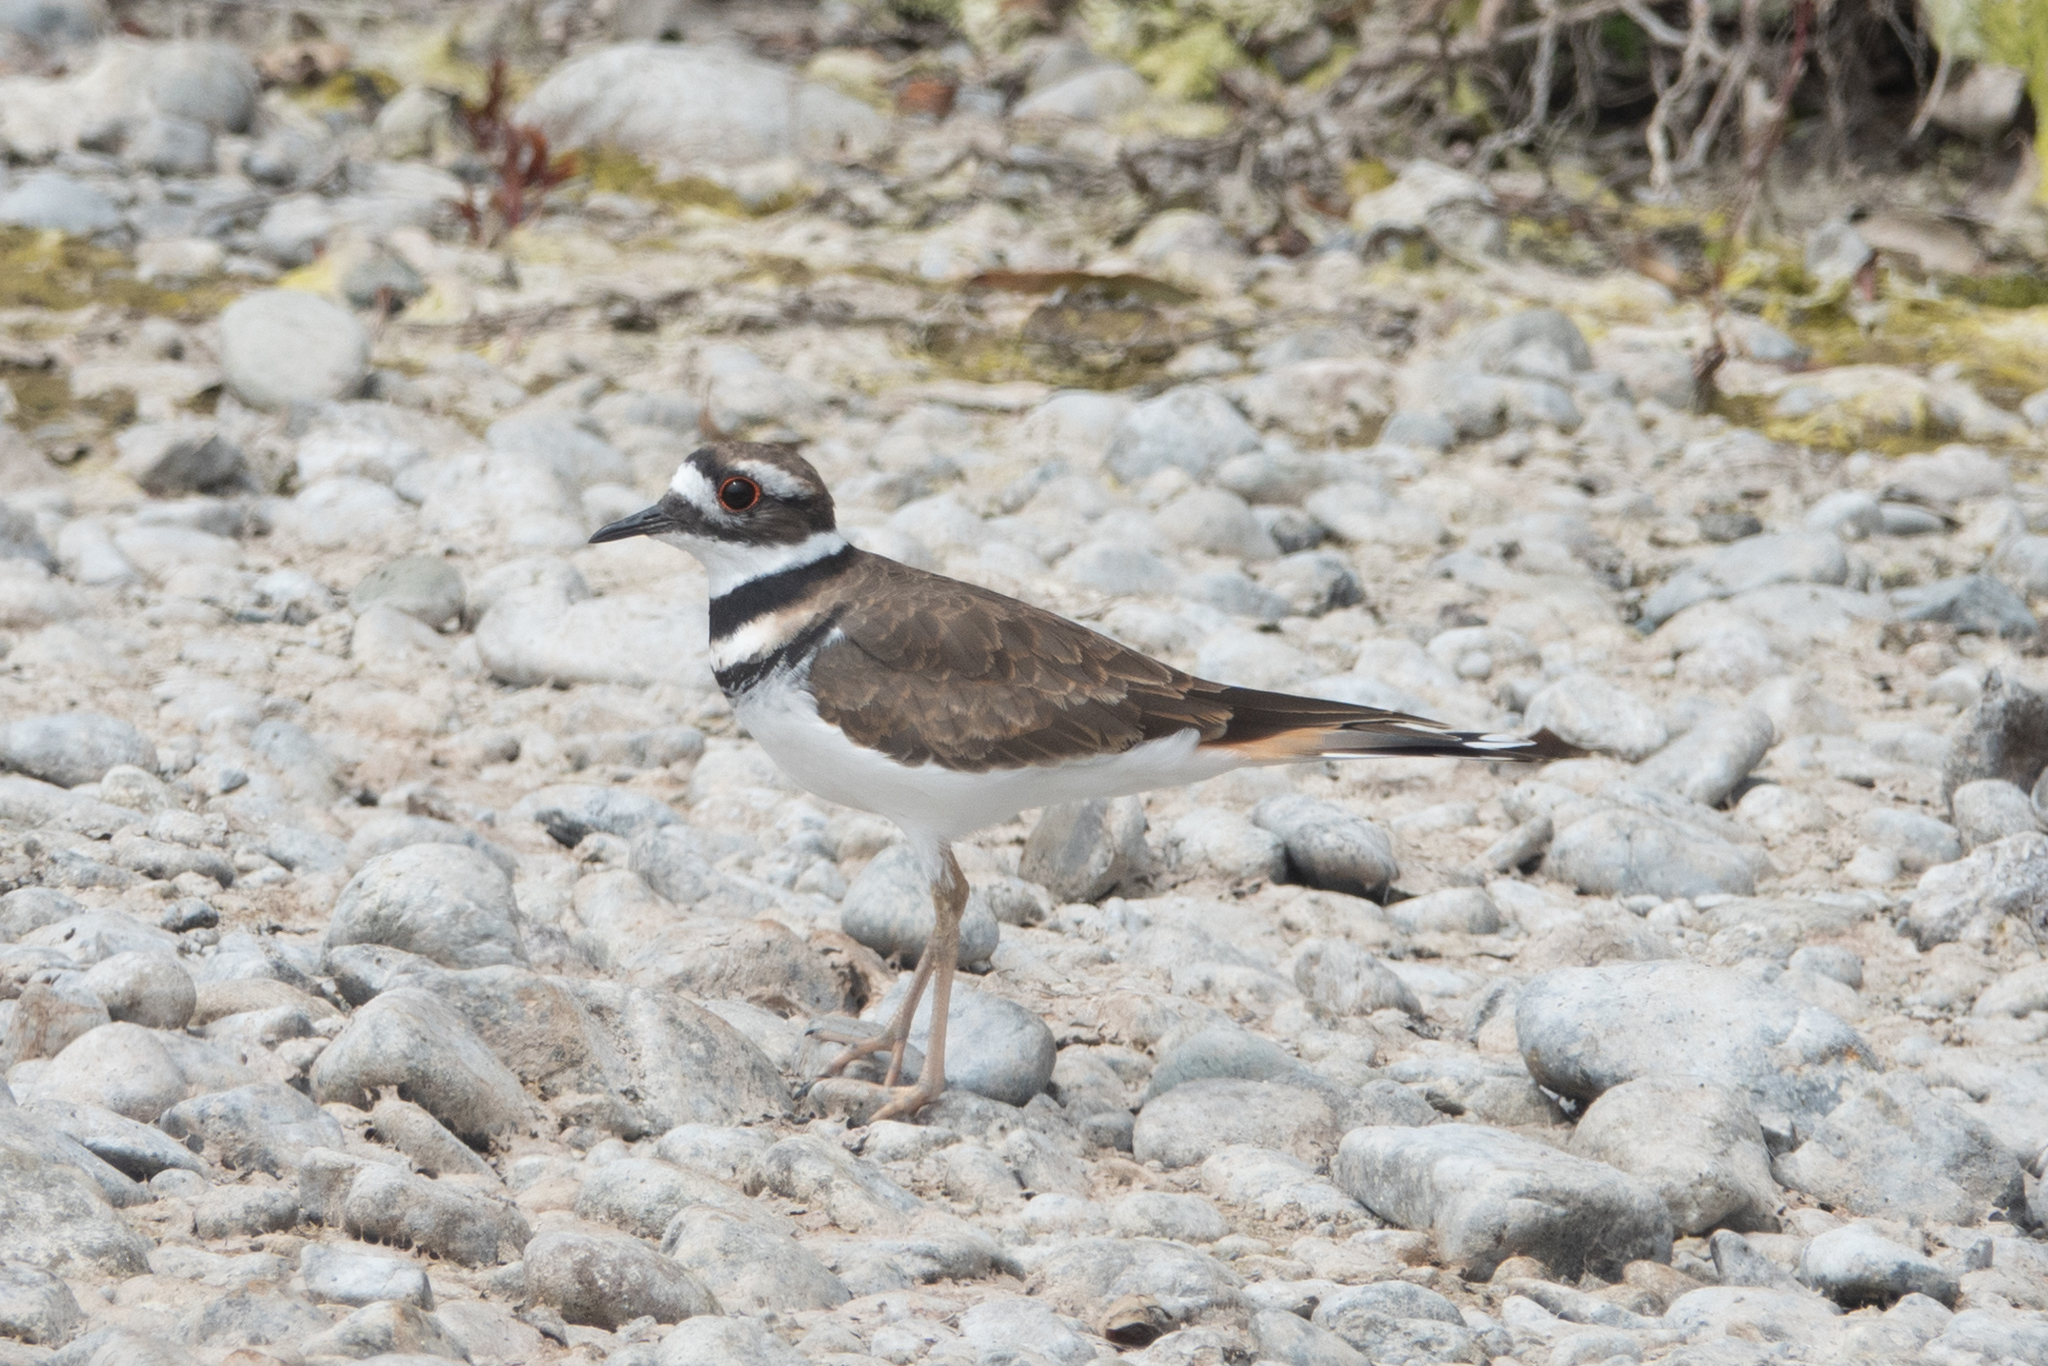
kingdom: Animalia
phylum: Chordata
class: Aves
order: Charadriiformes
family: Charadriidae
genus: Charadrius
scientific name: Charadrius vociferus
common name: Killdeer
